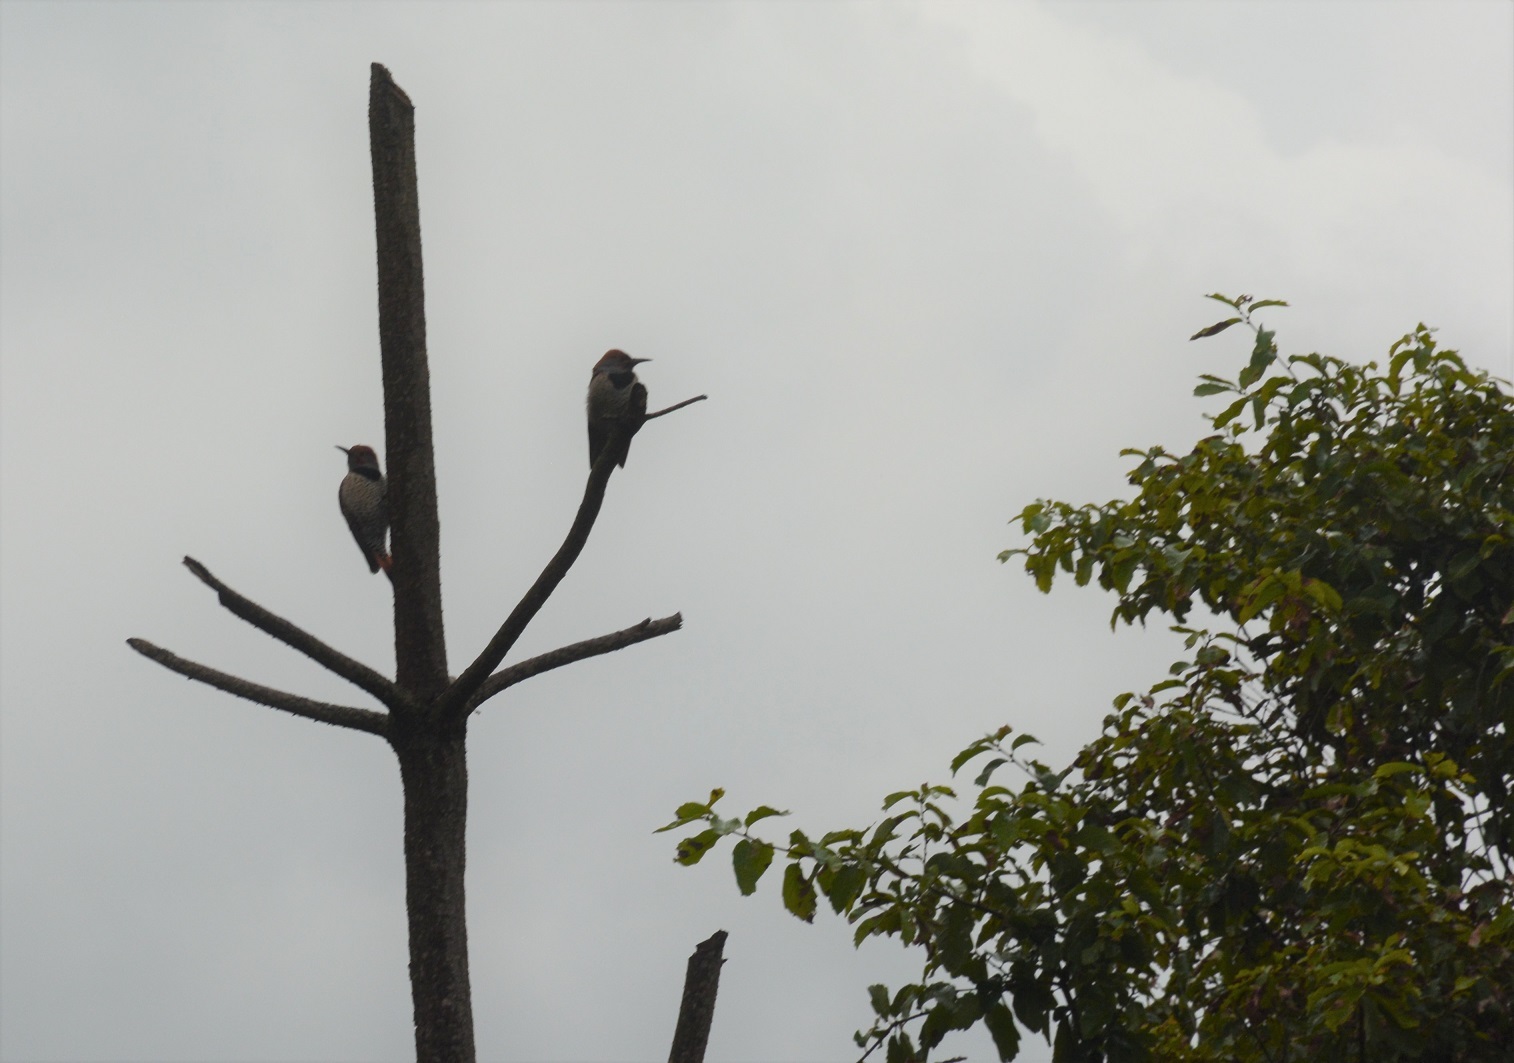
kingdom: Animalia
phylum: Chordata
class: Aves
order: Piciformes
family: Picidae
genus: Colaptes
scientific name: Colaptes auratus
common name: Northern flicker
